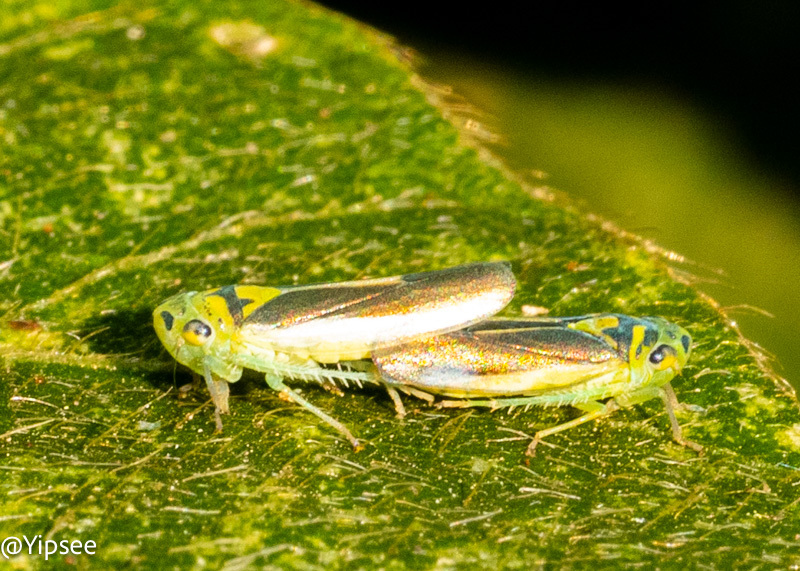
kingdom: Animalia
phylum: Arthropoda
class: Insecta
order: Hemiptera
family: Cicadellidae
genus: Kolla
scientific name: Kolla bataviae
